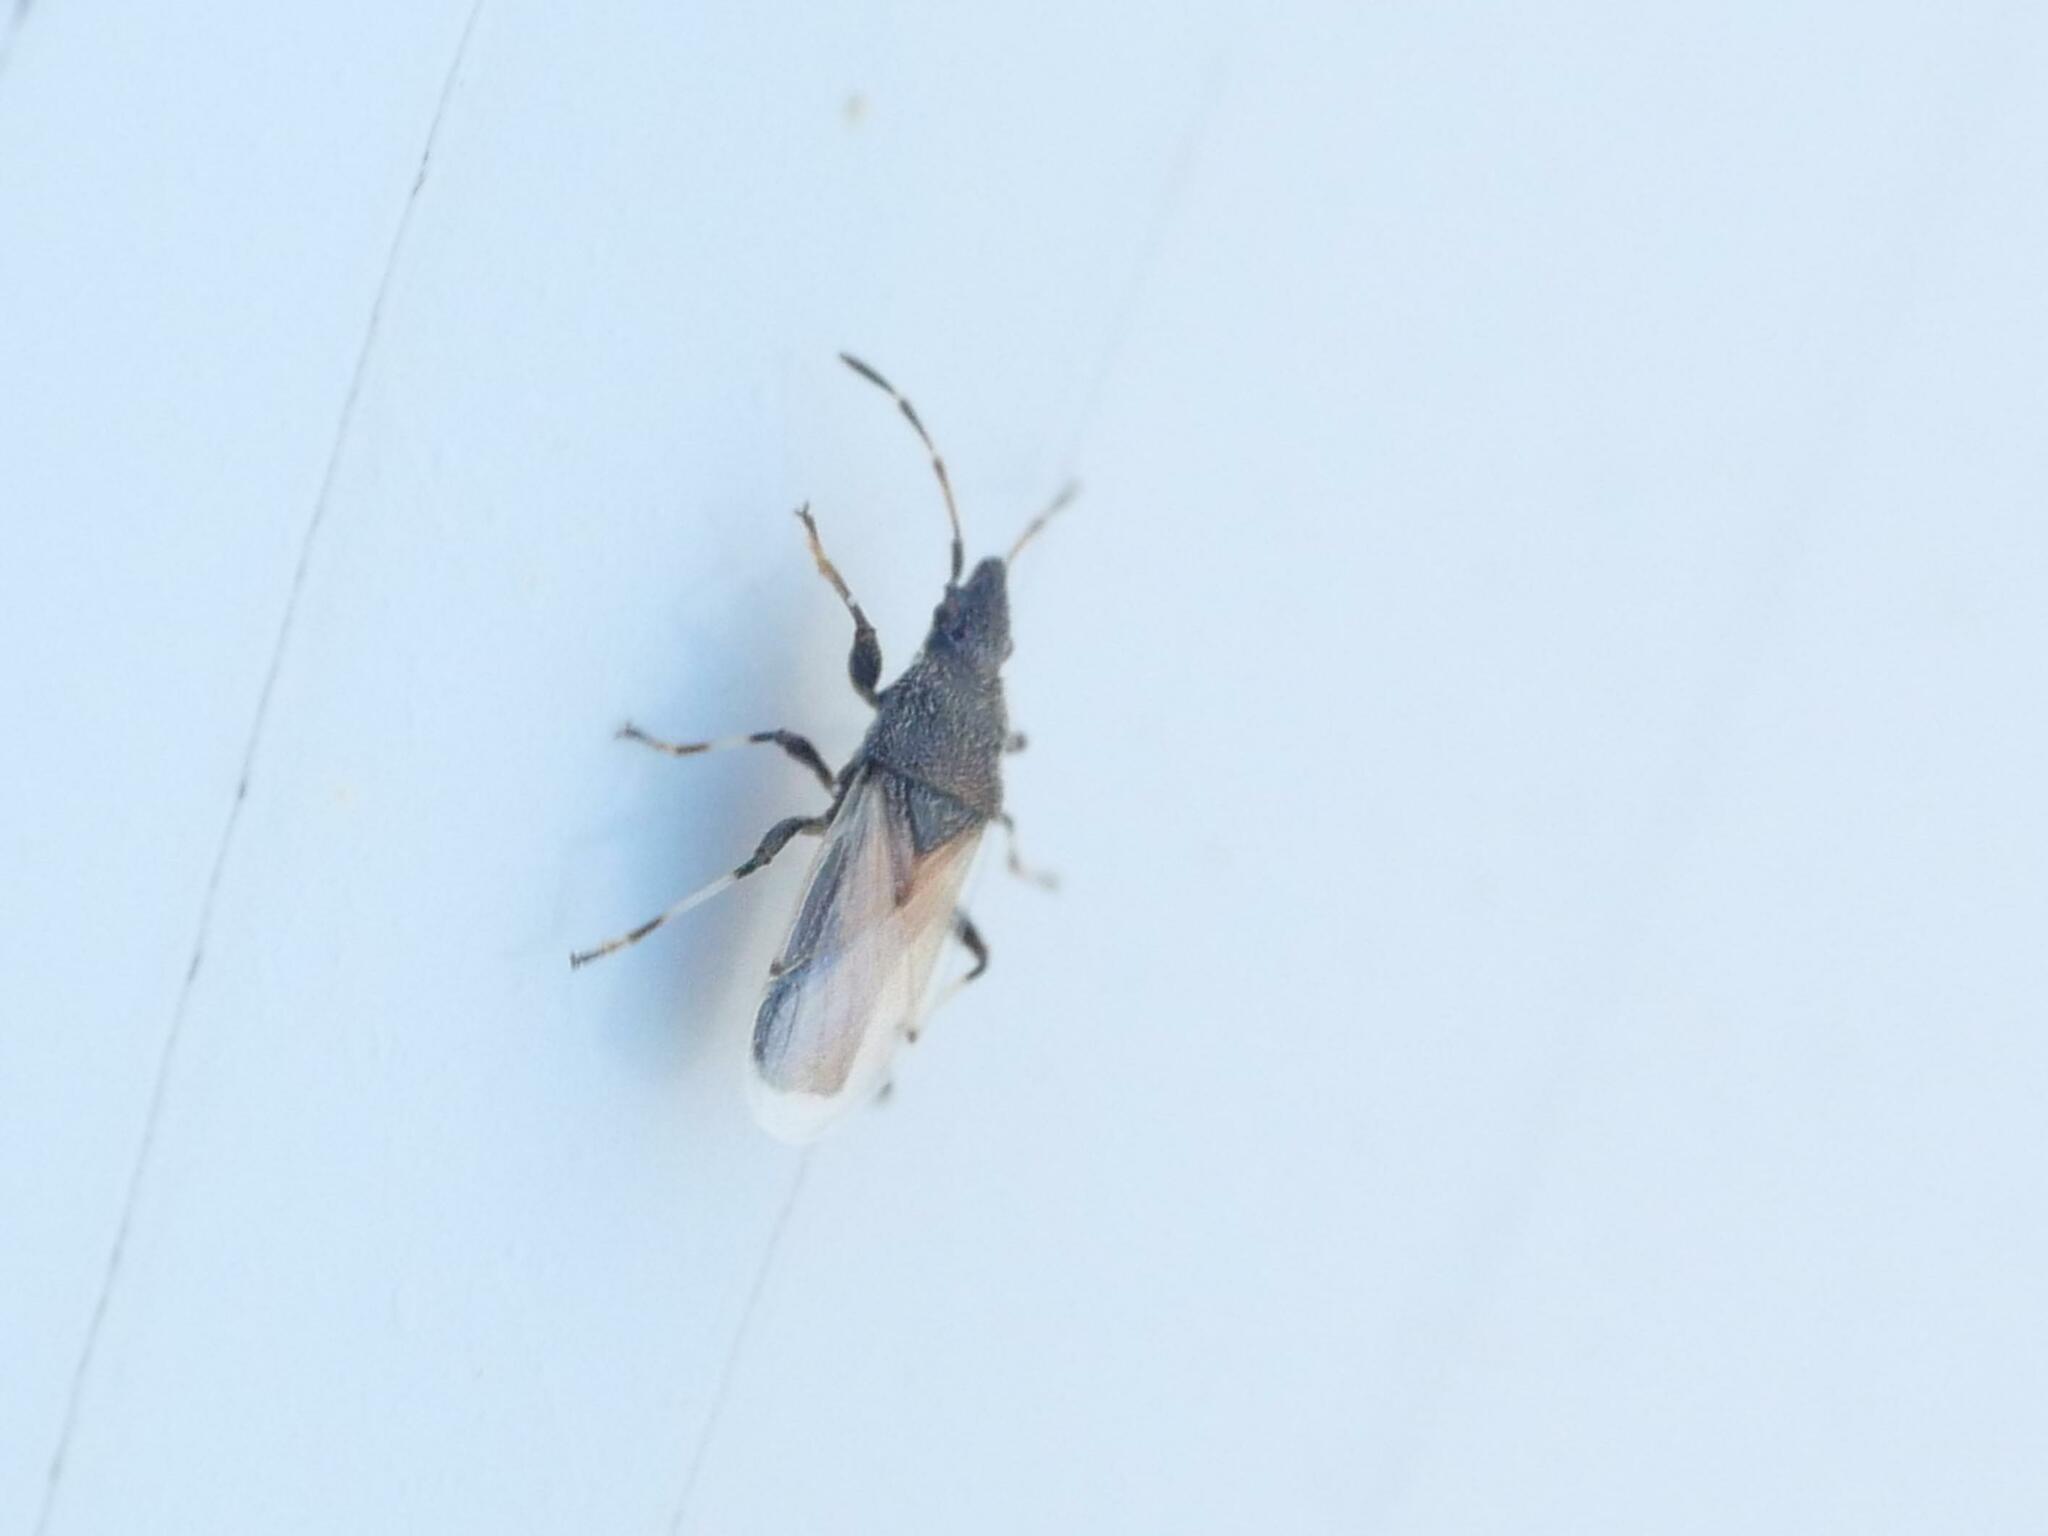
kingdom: Animalia
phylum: Arthropoda
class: Insecta
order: Hemiptera
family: Oxycarenidae
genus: Oxycarenus
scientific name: Oxycarenus hyalinipennis
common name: Cotton seed bug
